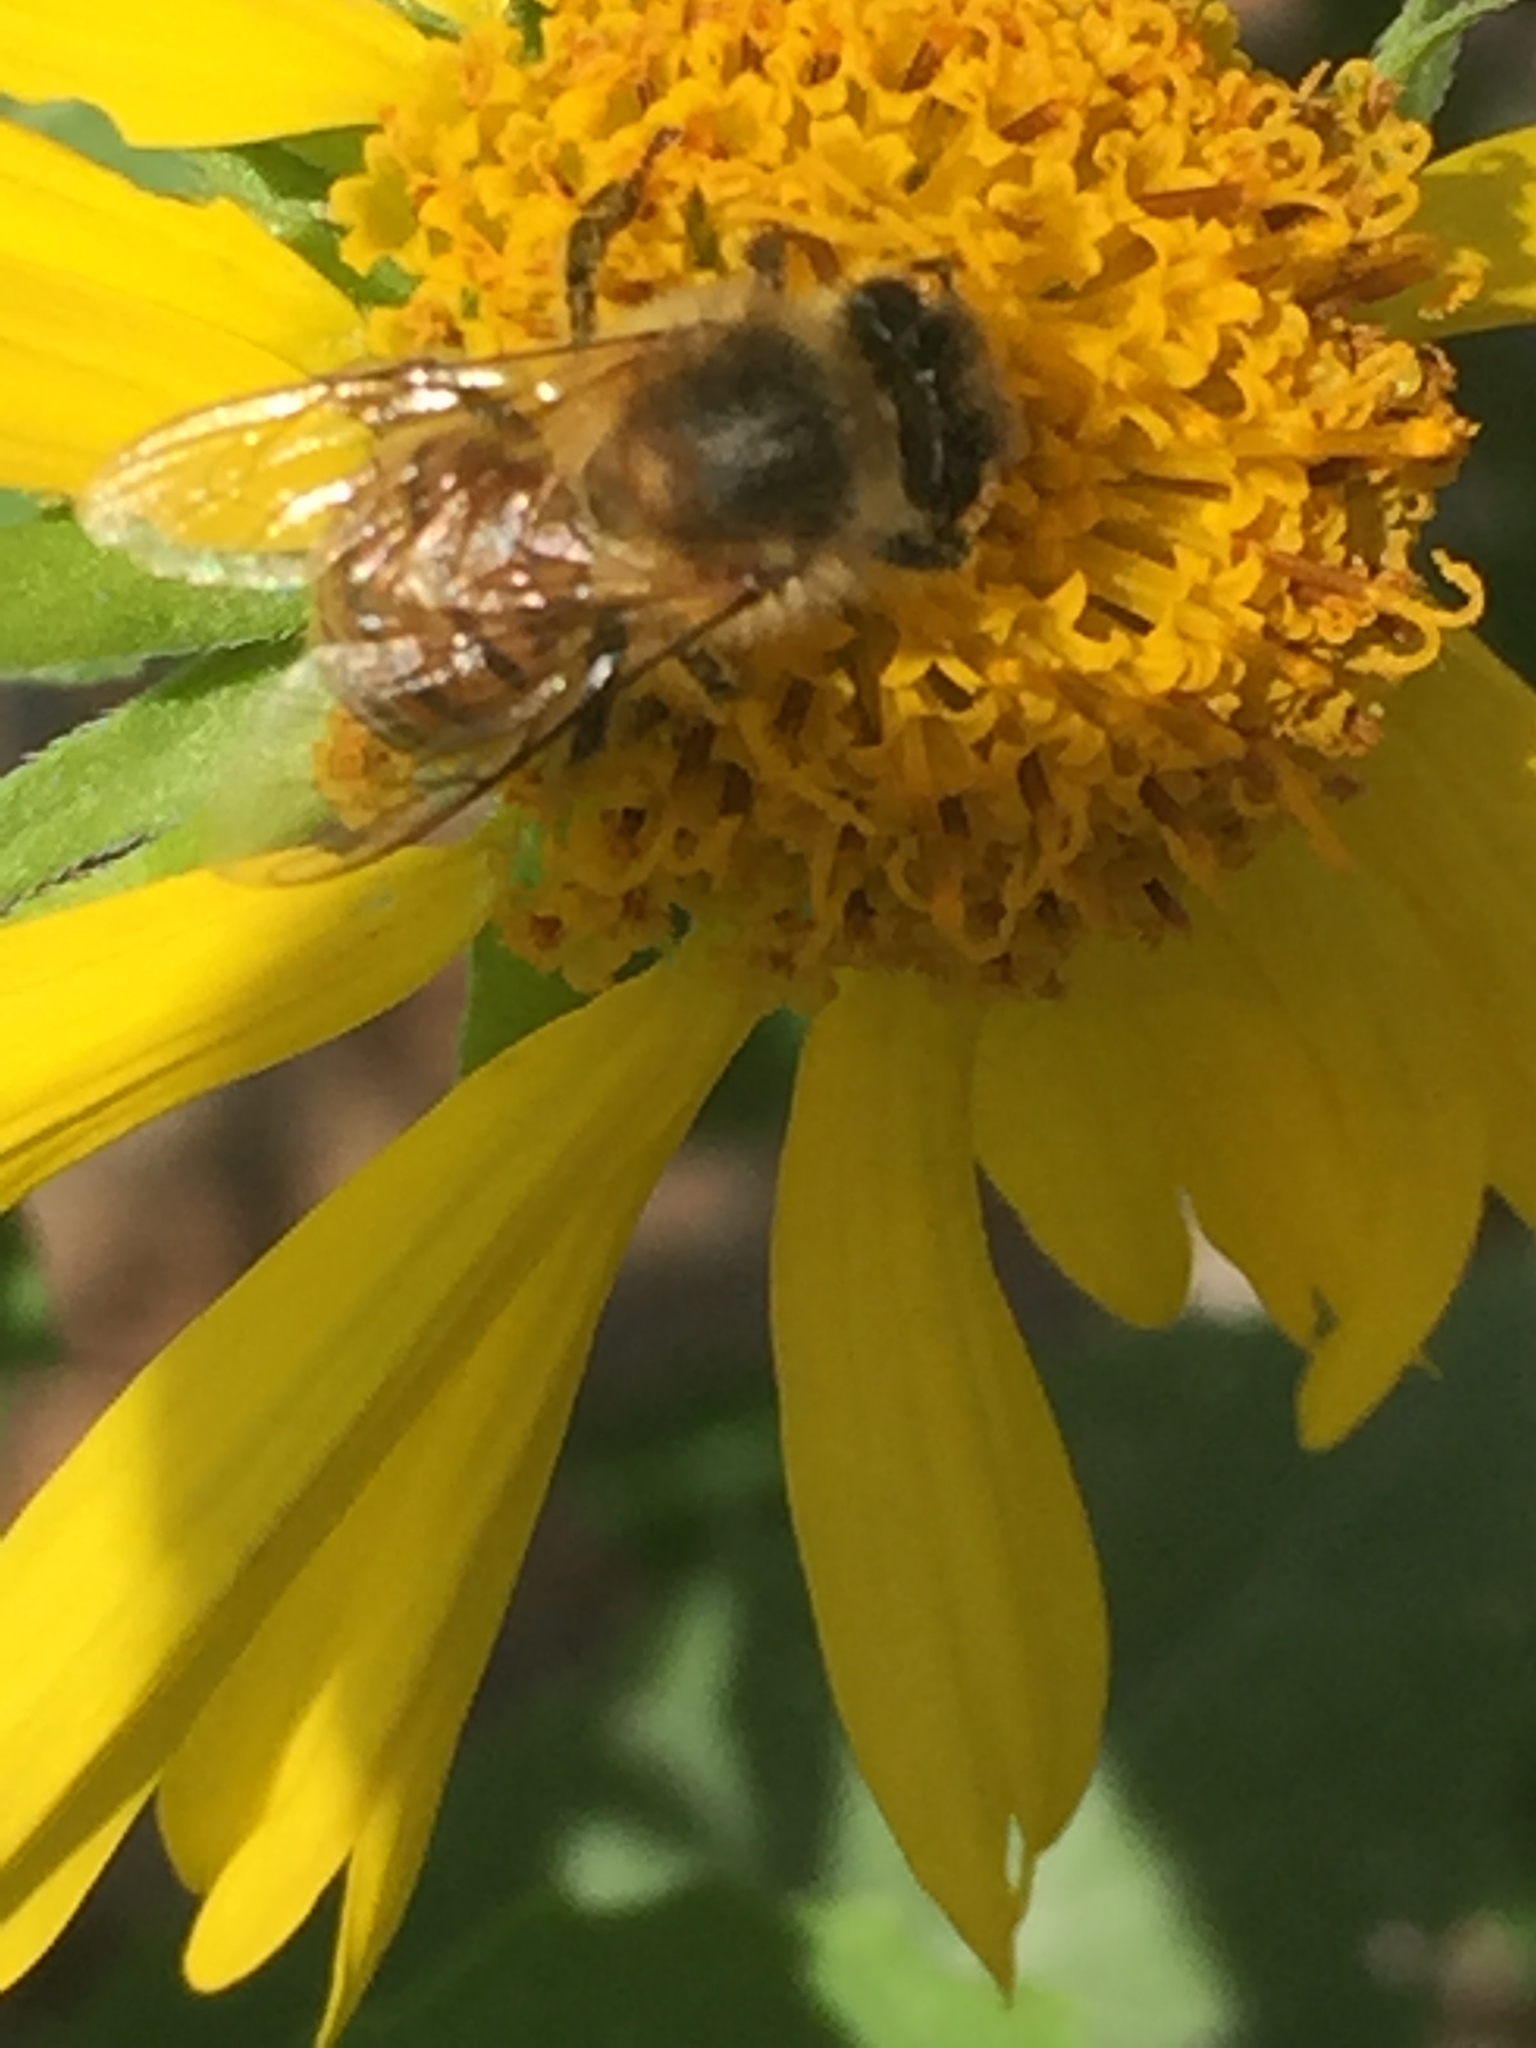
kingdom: Animalia
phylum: Arthropoda
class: Insecta
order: Hymenoptera
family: Apidae
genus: Apis
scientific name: Apis mellifera
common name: Honey bee
